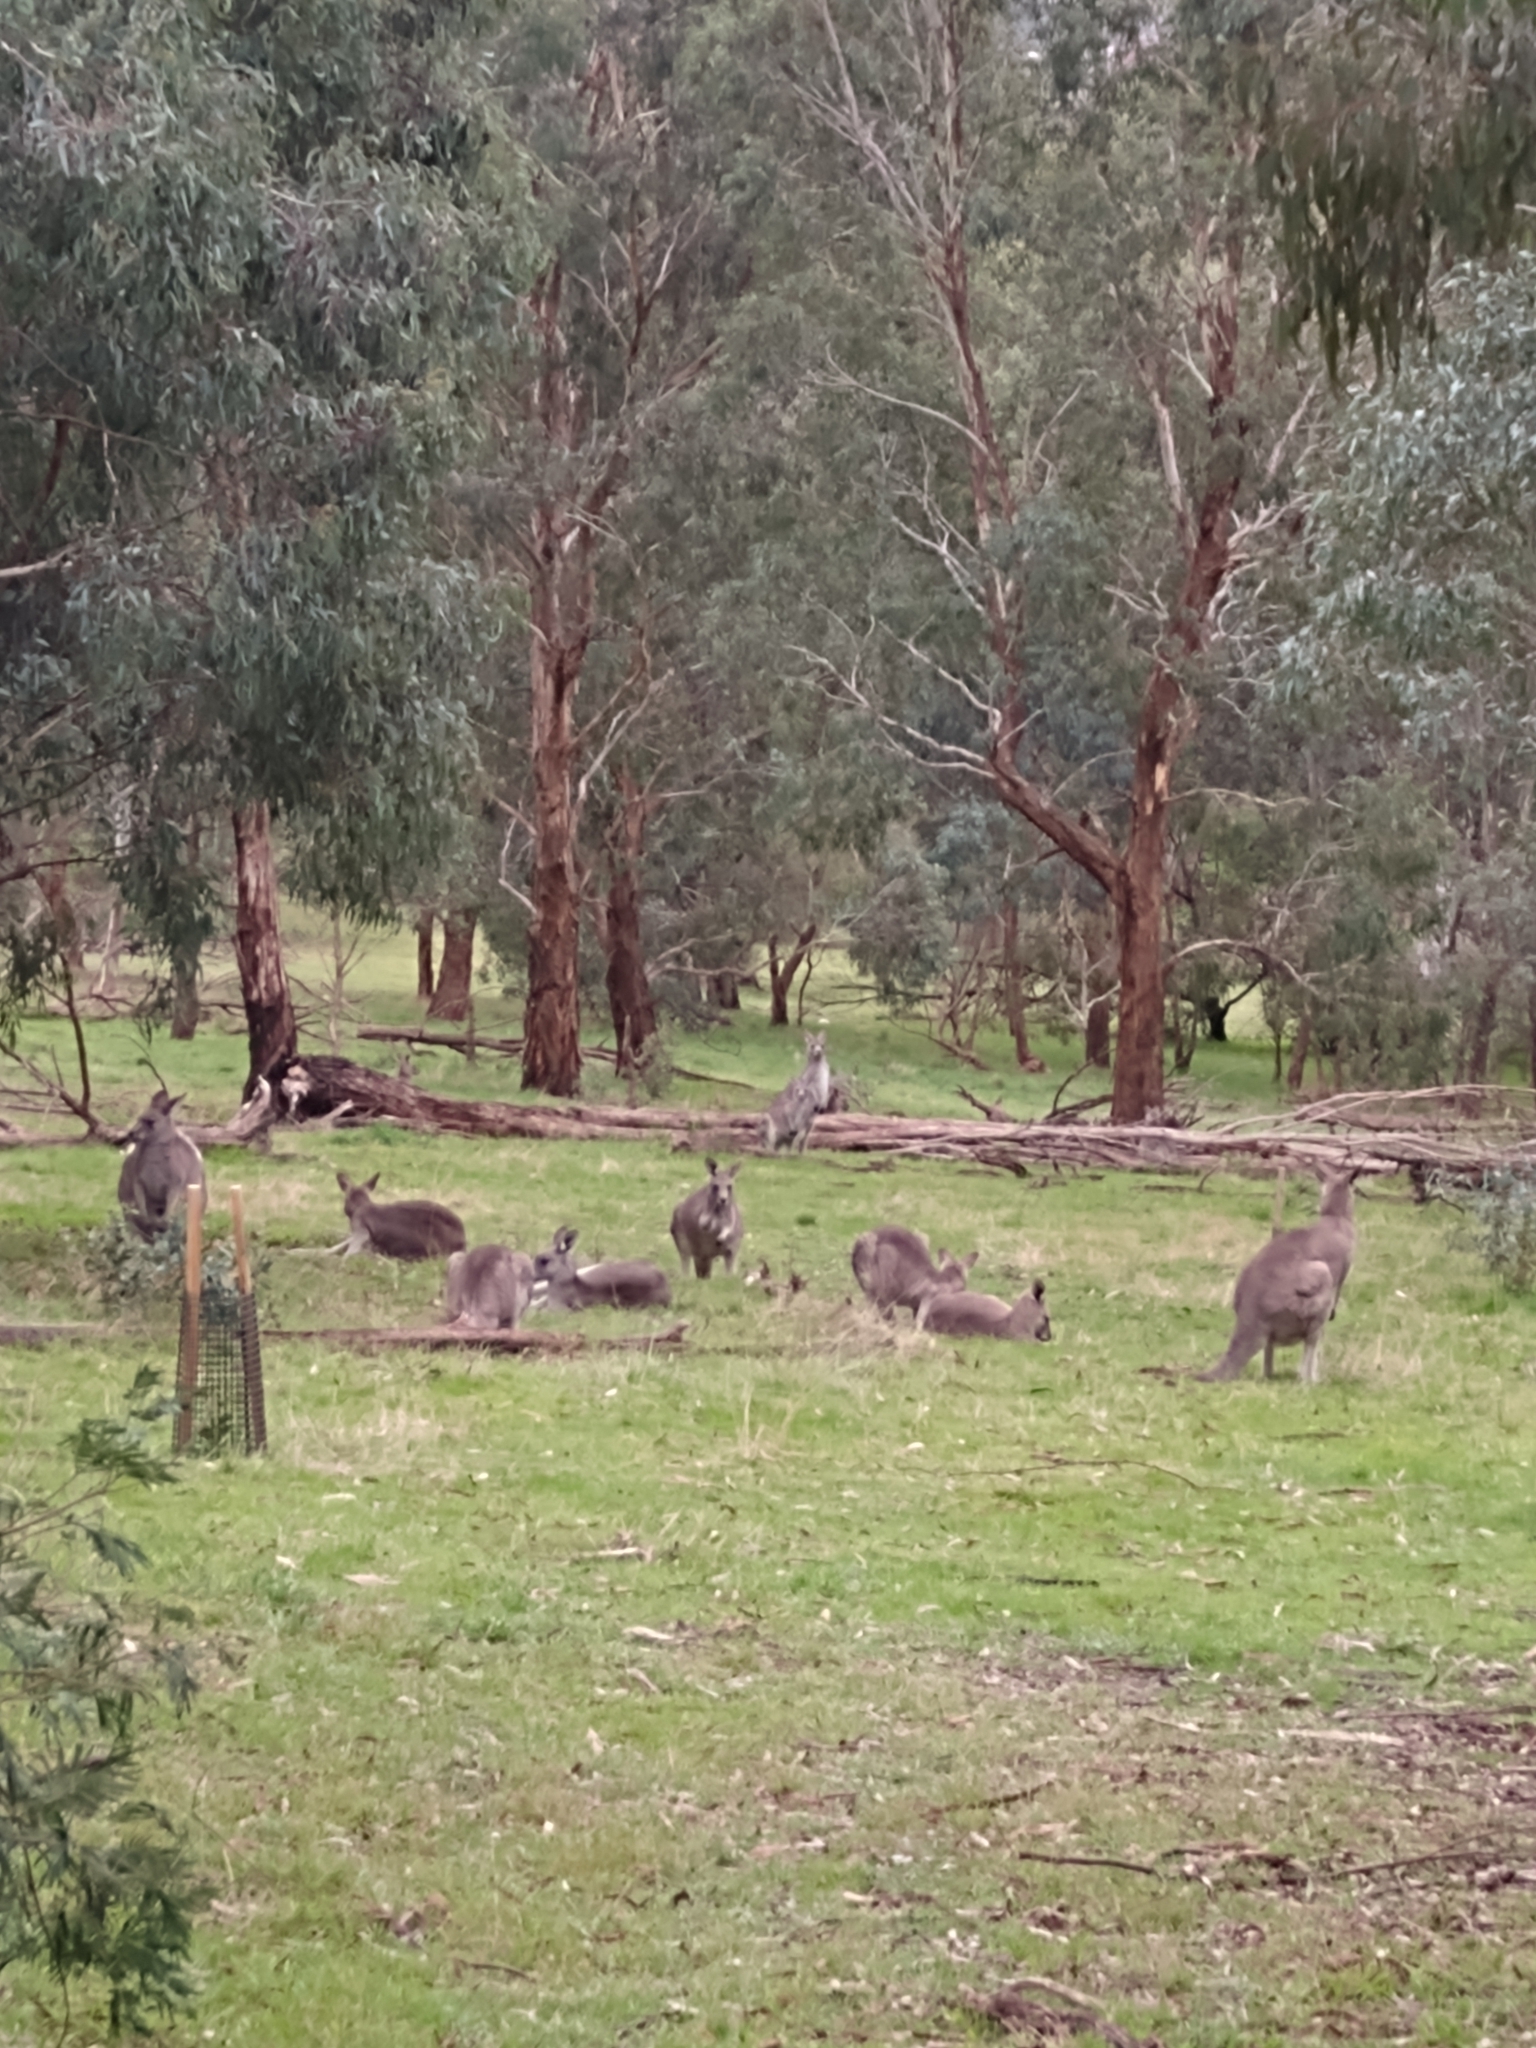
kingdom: Animalia
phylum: Chordata
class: Mammalia
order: Diprotodontia
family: Macropodidae
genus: Macropus
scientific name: Macropus giganteus
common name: Eastern grey kangaroo
